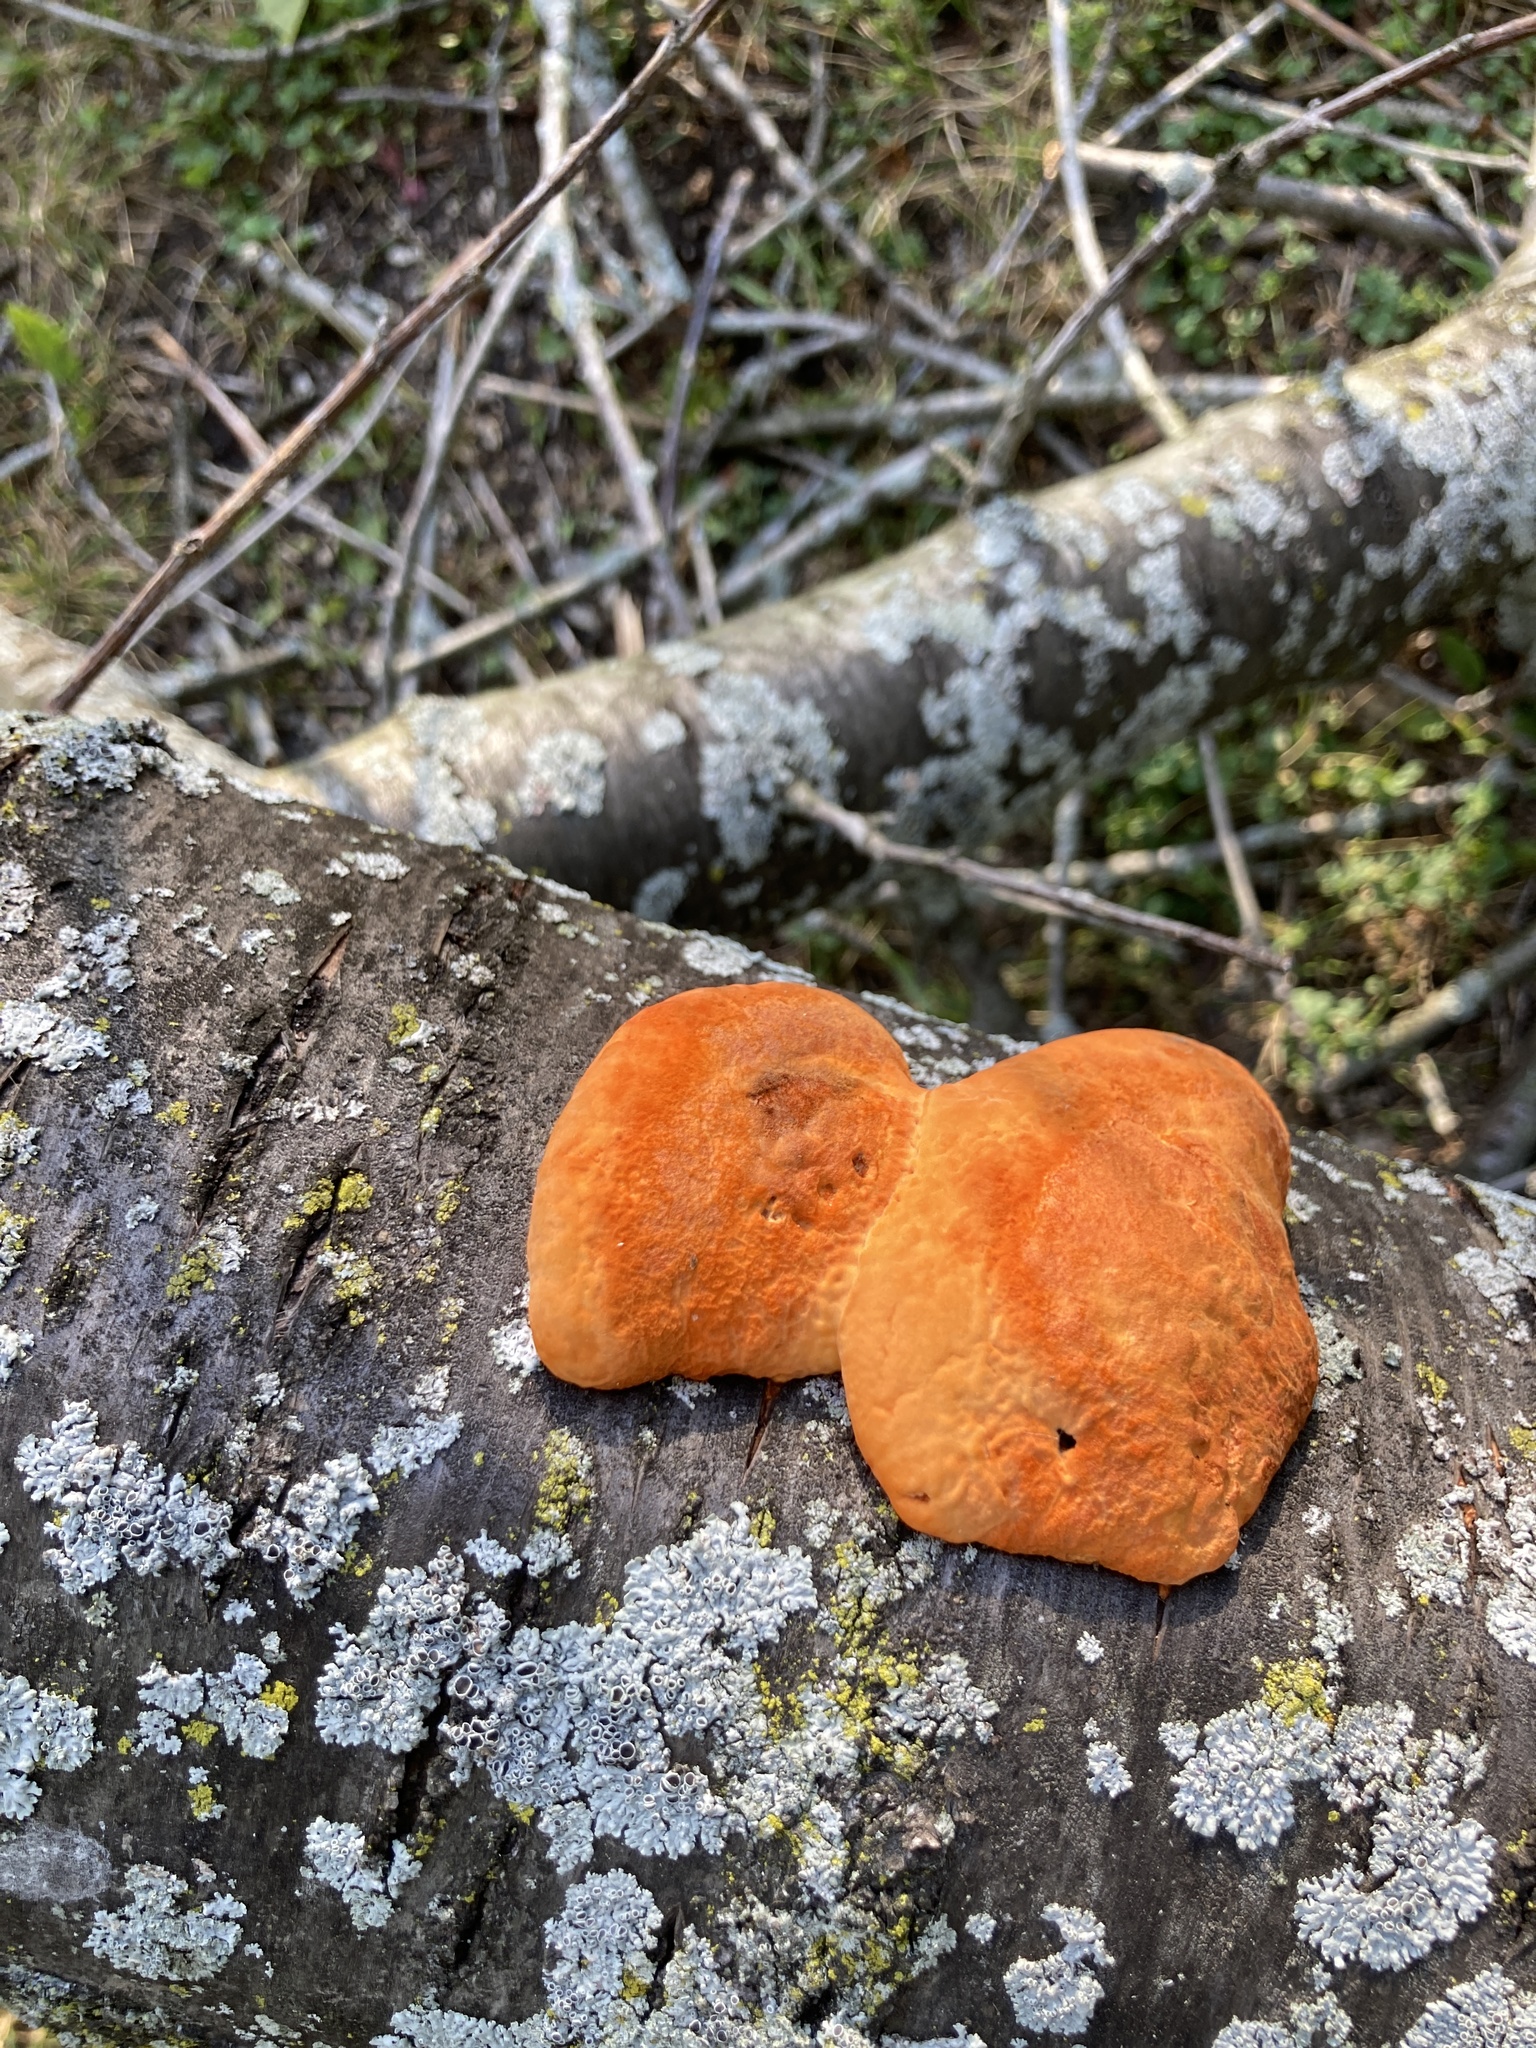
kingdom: Fungi
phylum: Basidiomycota
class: Agaricomycetes
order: Polyporales
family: Polyporaceae
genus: Trametes
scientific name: Trametes cinnabarina
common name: Northern cinnabar polypore
